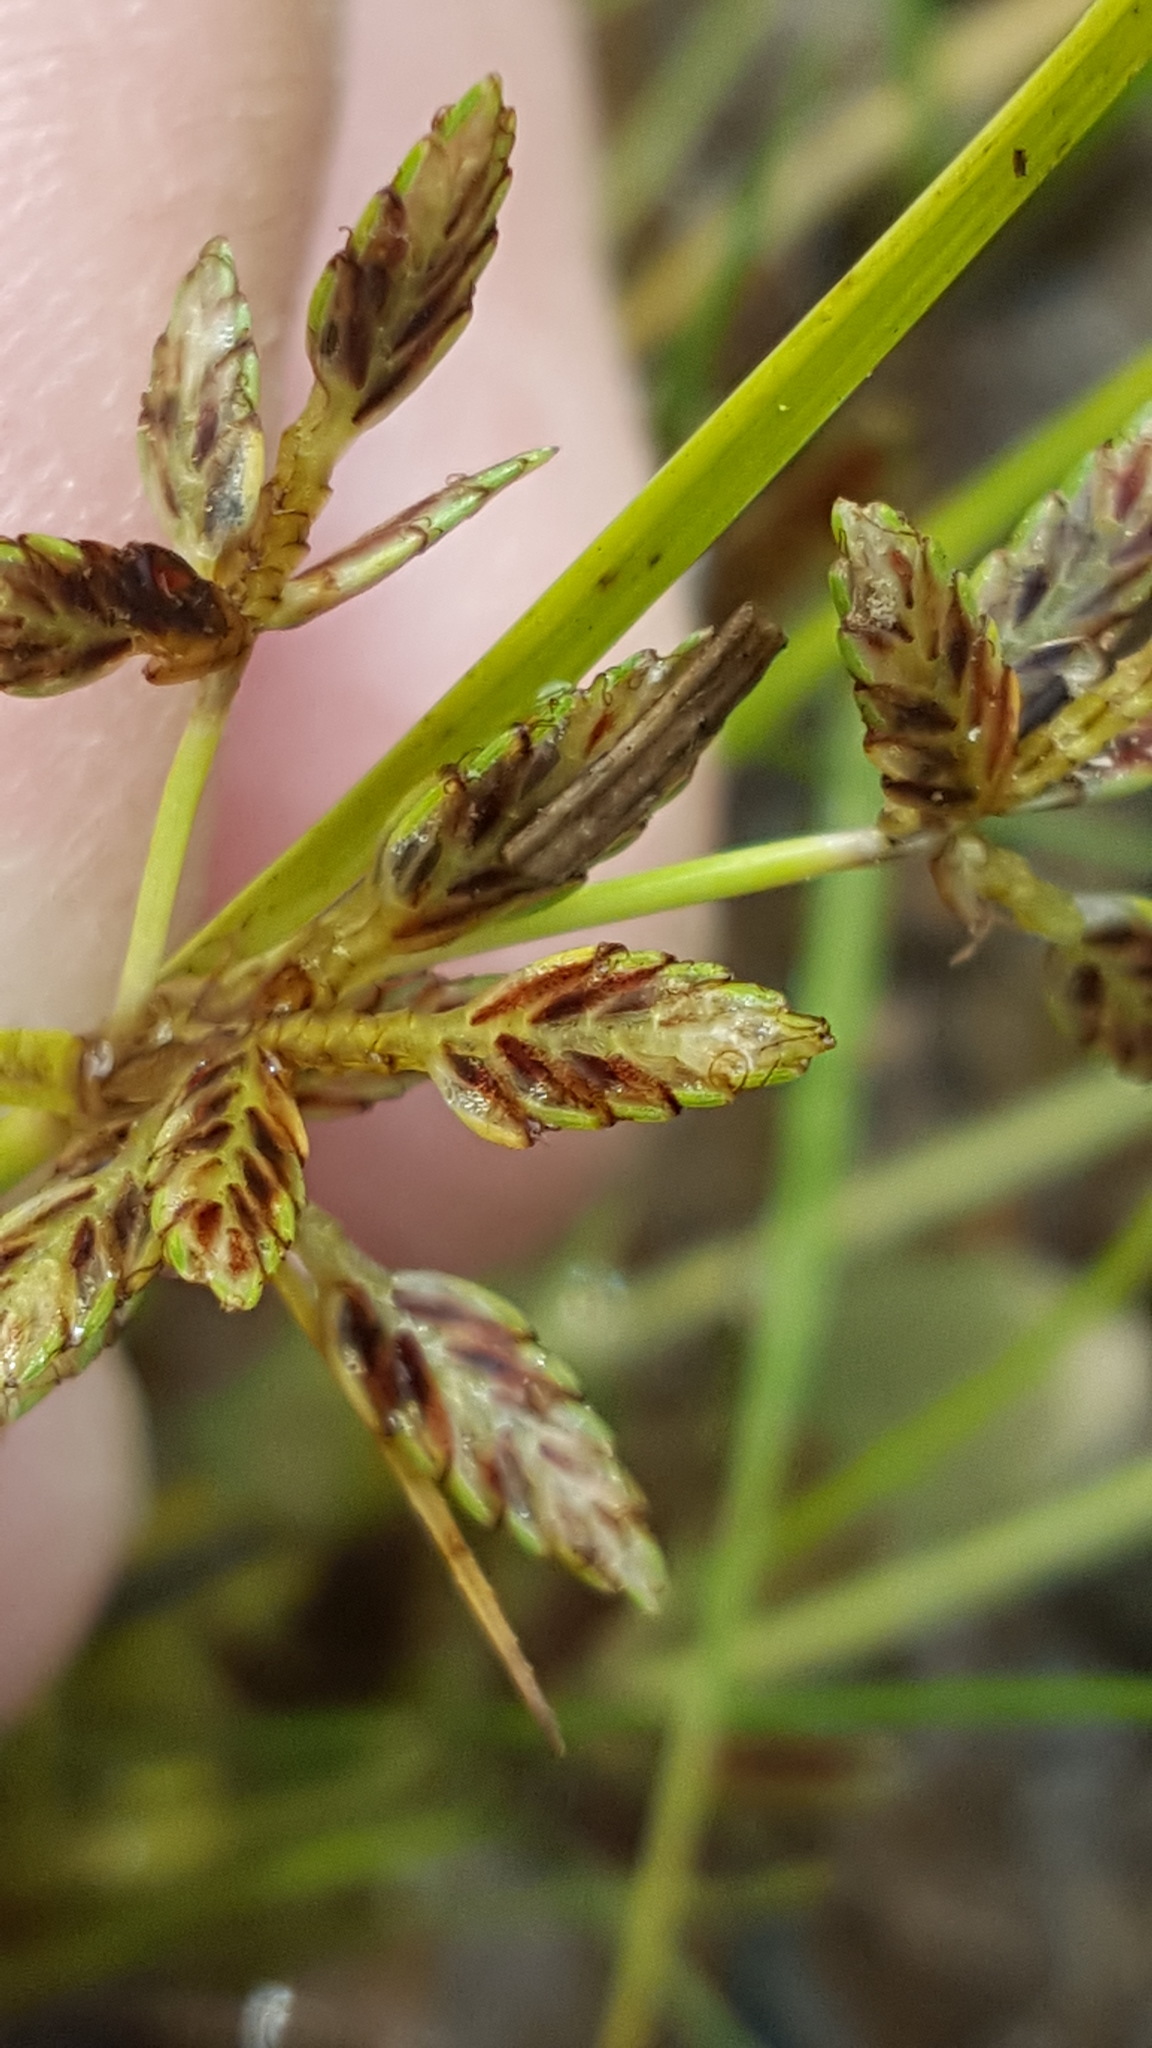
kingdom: Plantae
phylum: Tracheophyta
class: Liliopsida
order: Poales
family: Cyperaceae
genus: Cyperus
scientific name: Cyperus bipartitus
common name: Brook flatsedge
